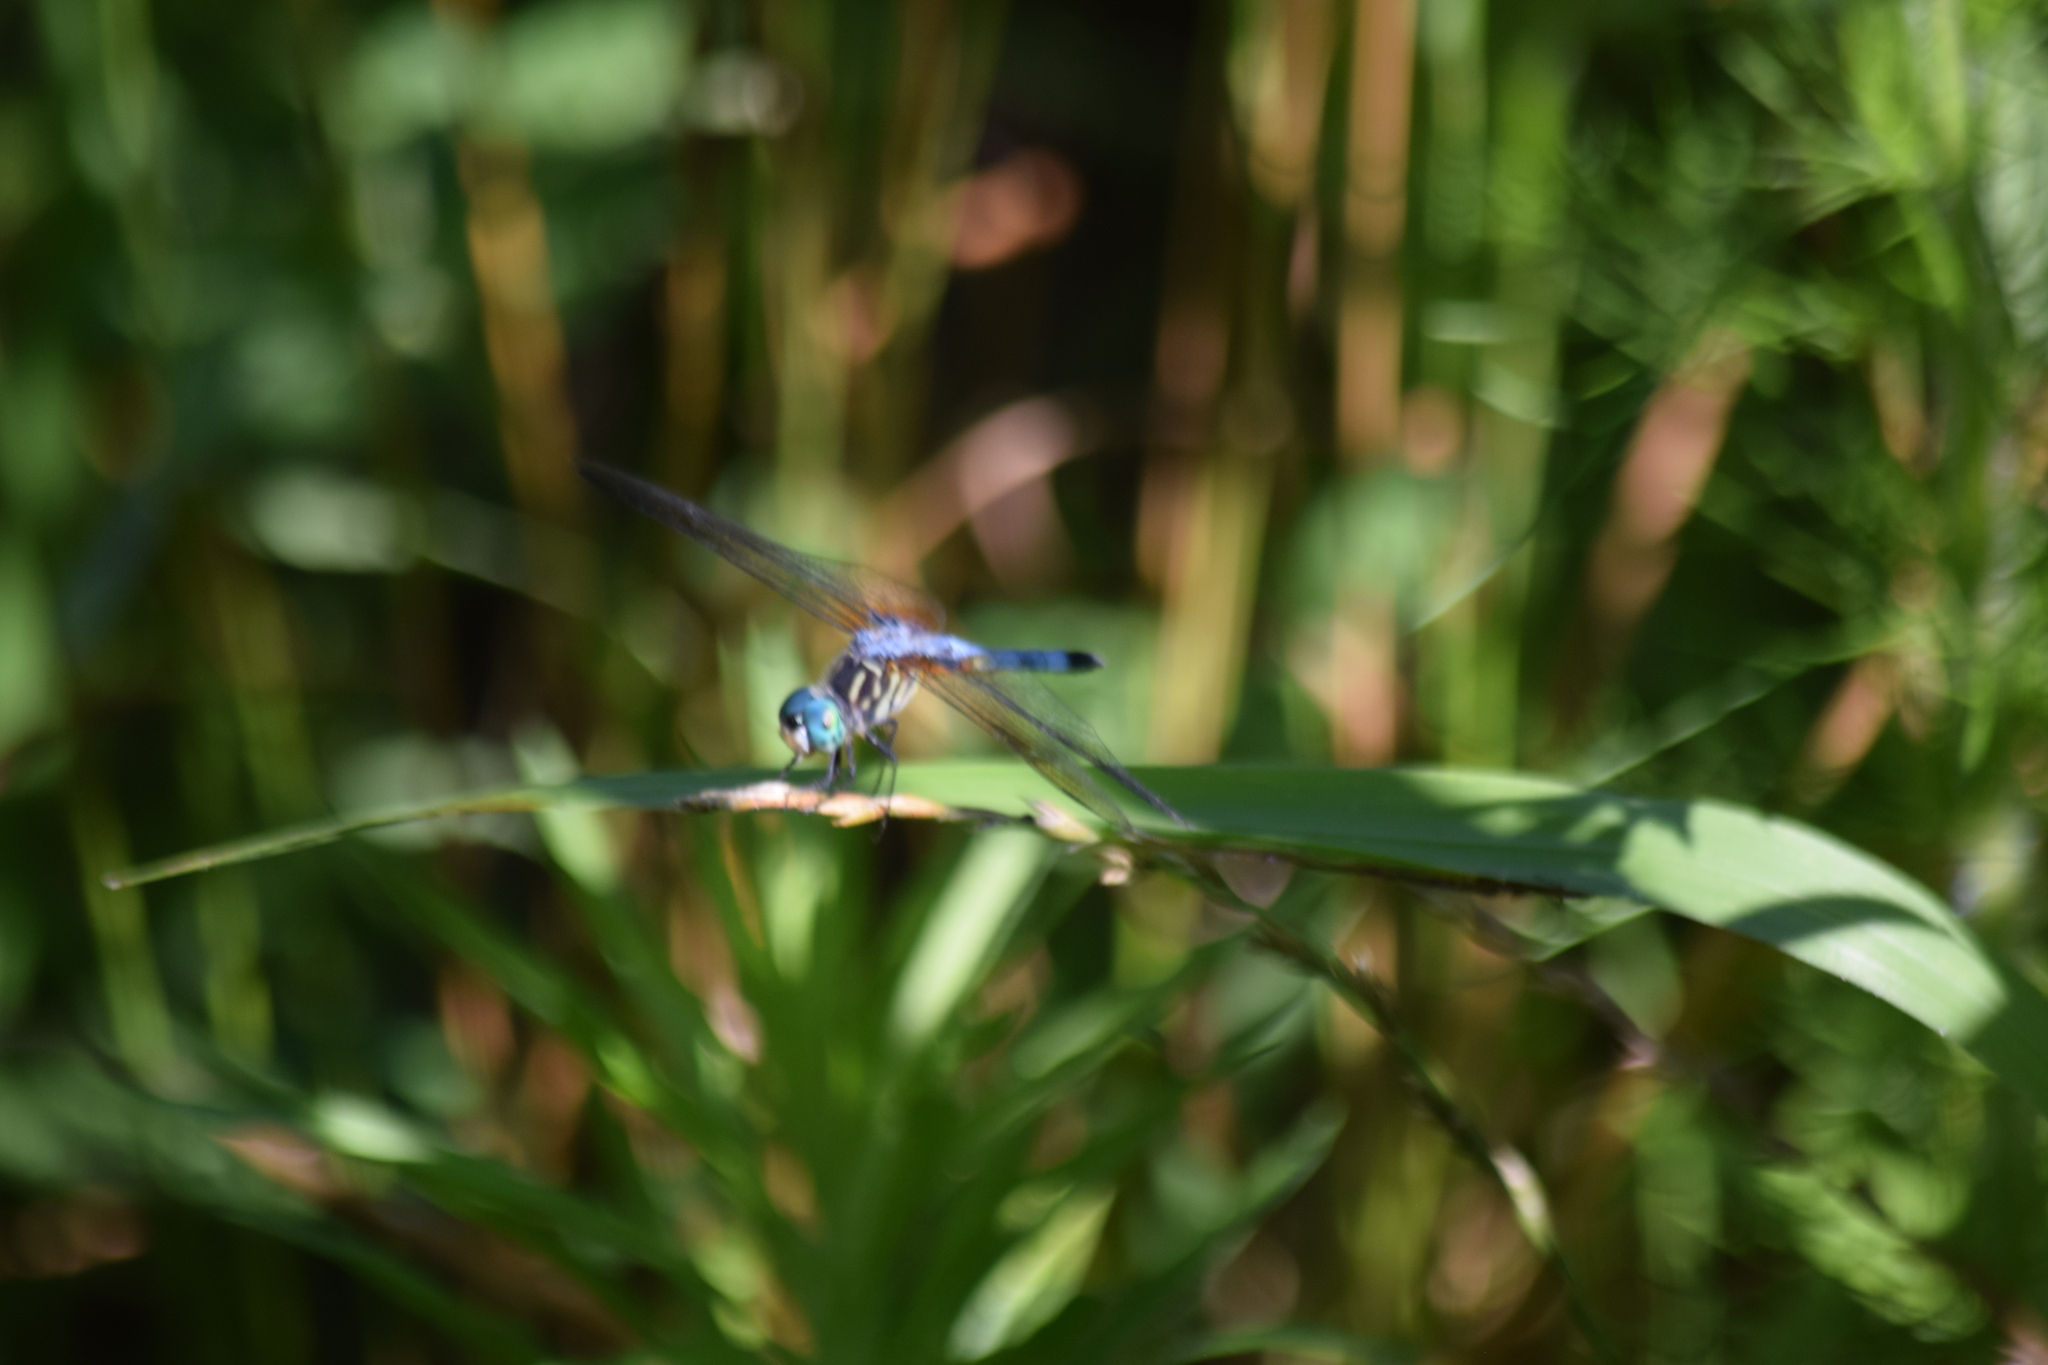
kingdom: Animalia
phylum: Arthropoda
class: Insecta
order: Odonata
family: Libellulidae
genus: Pachydiplax
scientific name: Pachydiplax longipennis
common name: Blue dasher
